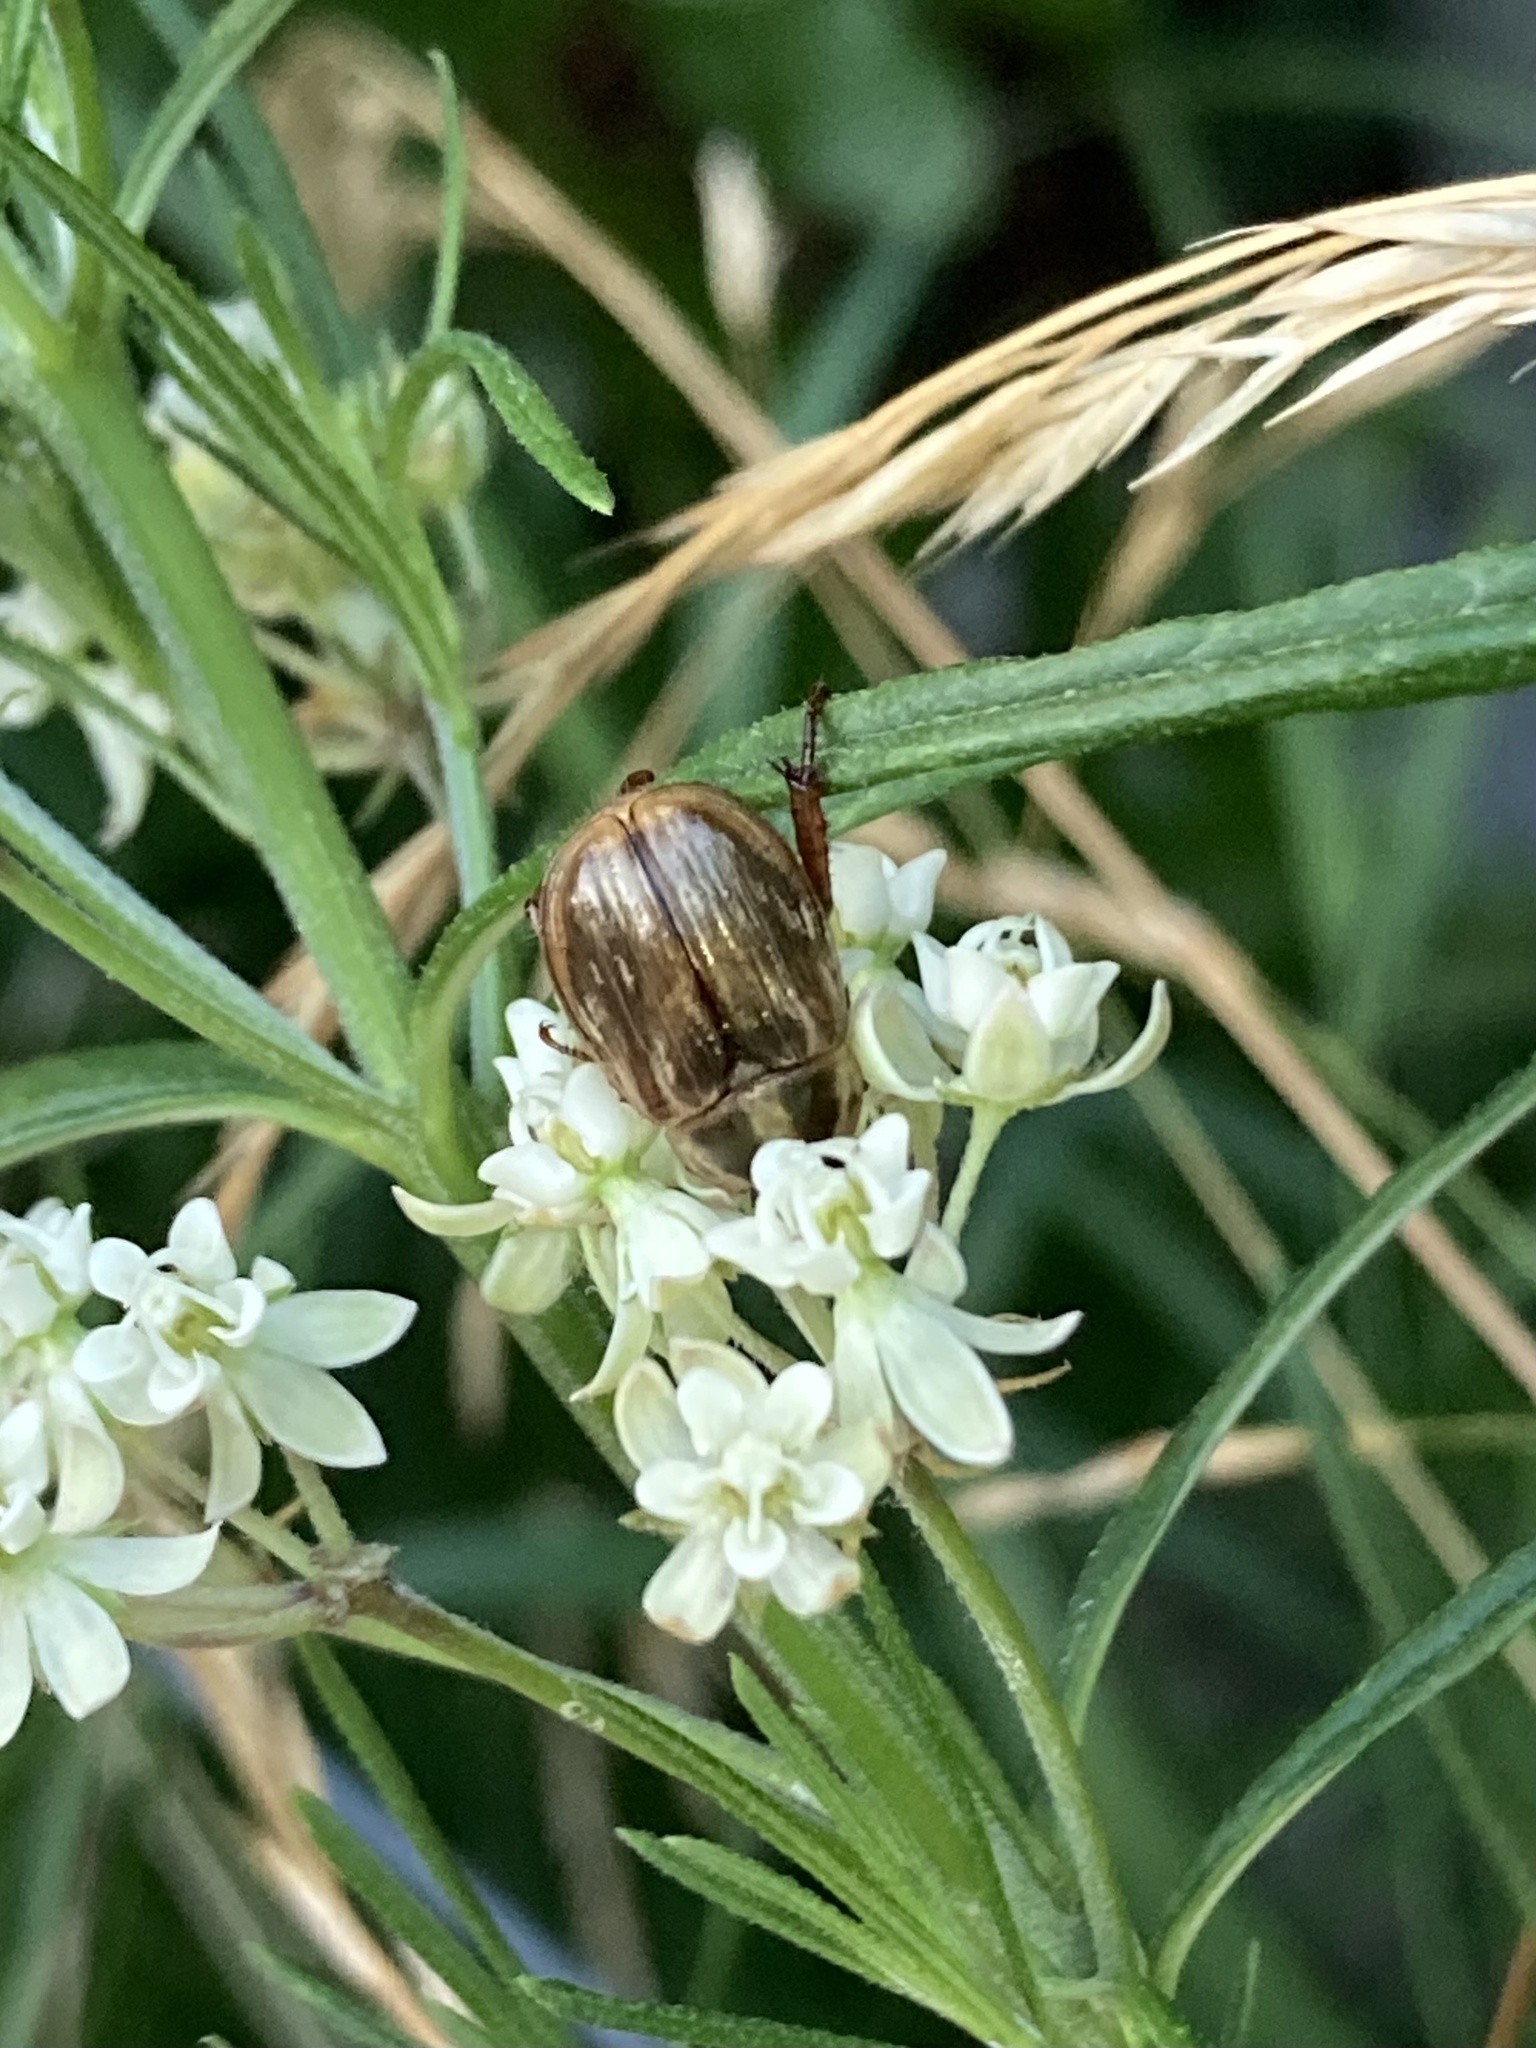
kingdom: Animalia
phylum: Arthropoda
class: Insecta
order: Coleoptera
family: Scarabaeidae
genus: Exomala
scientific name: Exomala orientalis
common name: Oriental beetle
